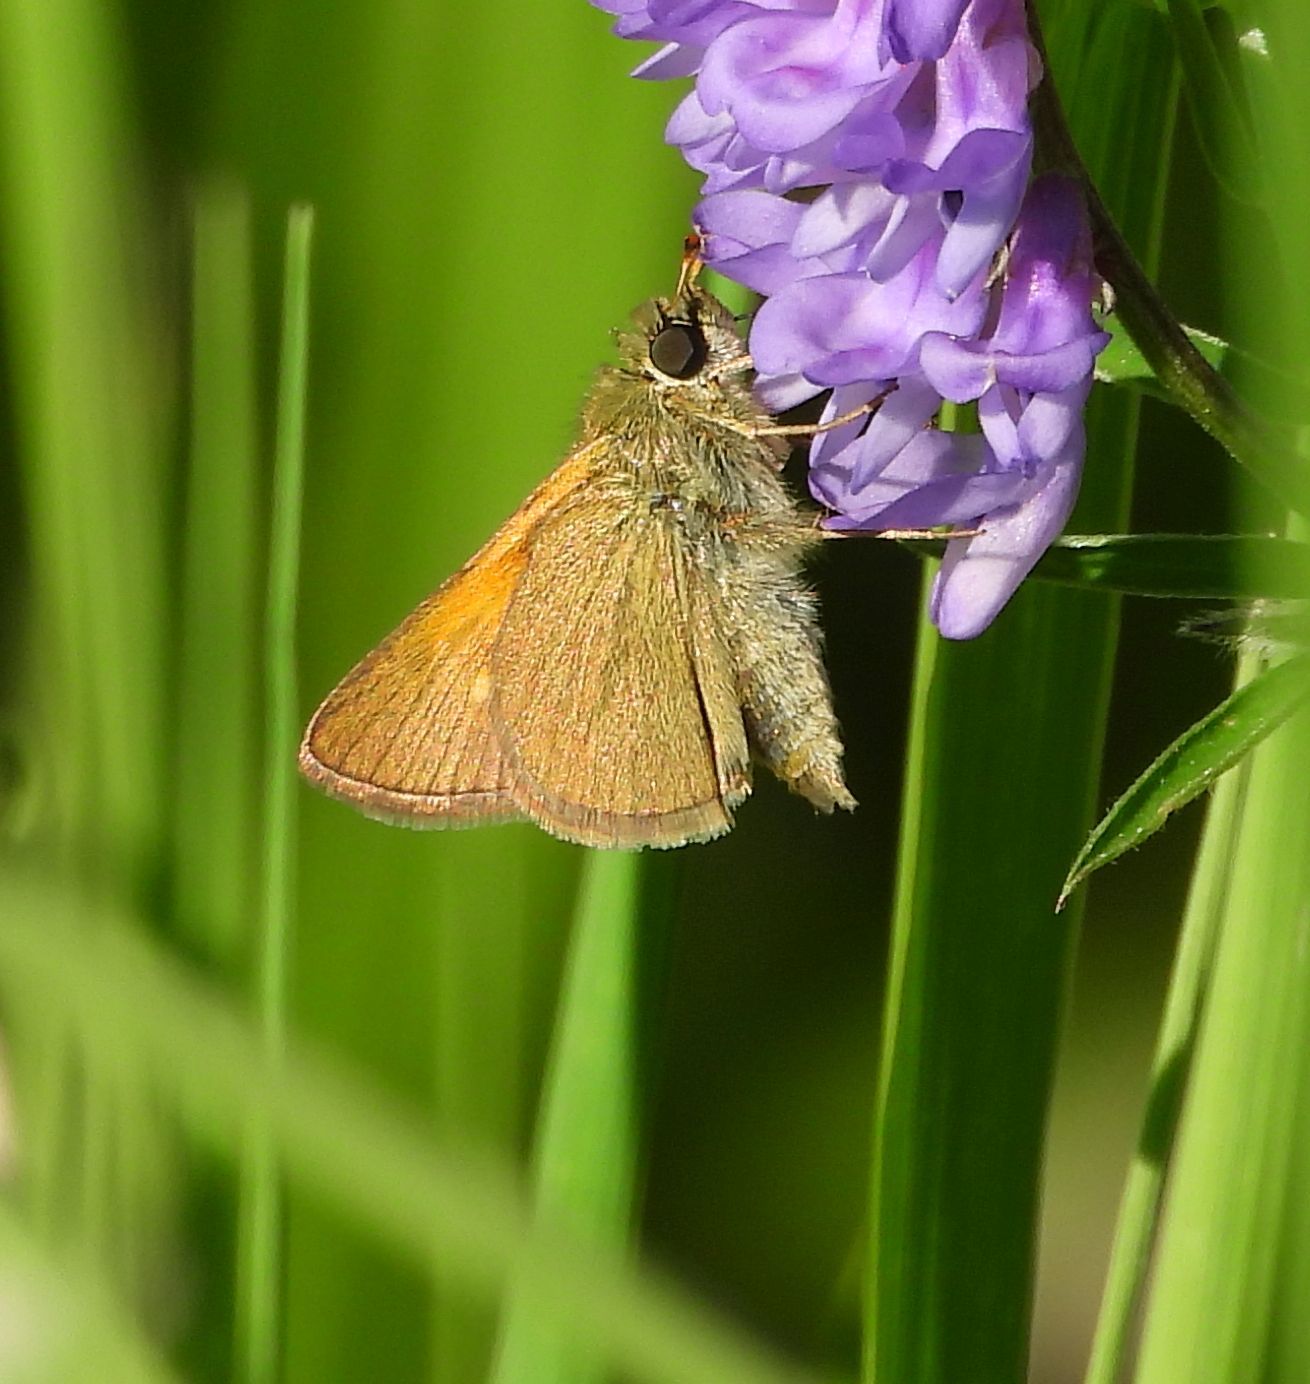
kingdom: Animalia
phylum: Arthropoda
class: Insecta
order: Lepidoptera
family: Hesperiidae
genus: Polites
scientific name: Polites themistocles
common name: Tawny-edged skipper
